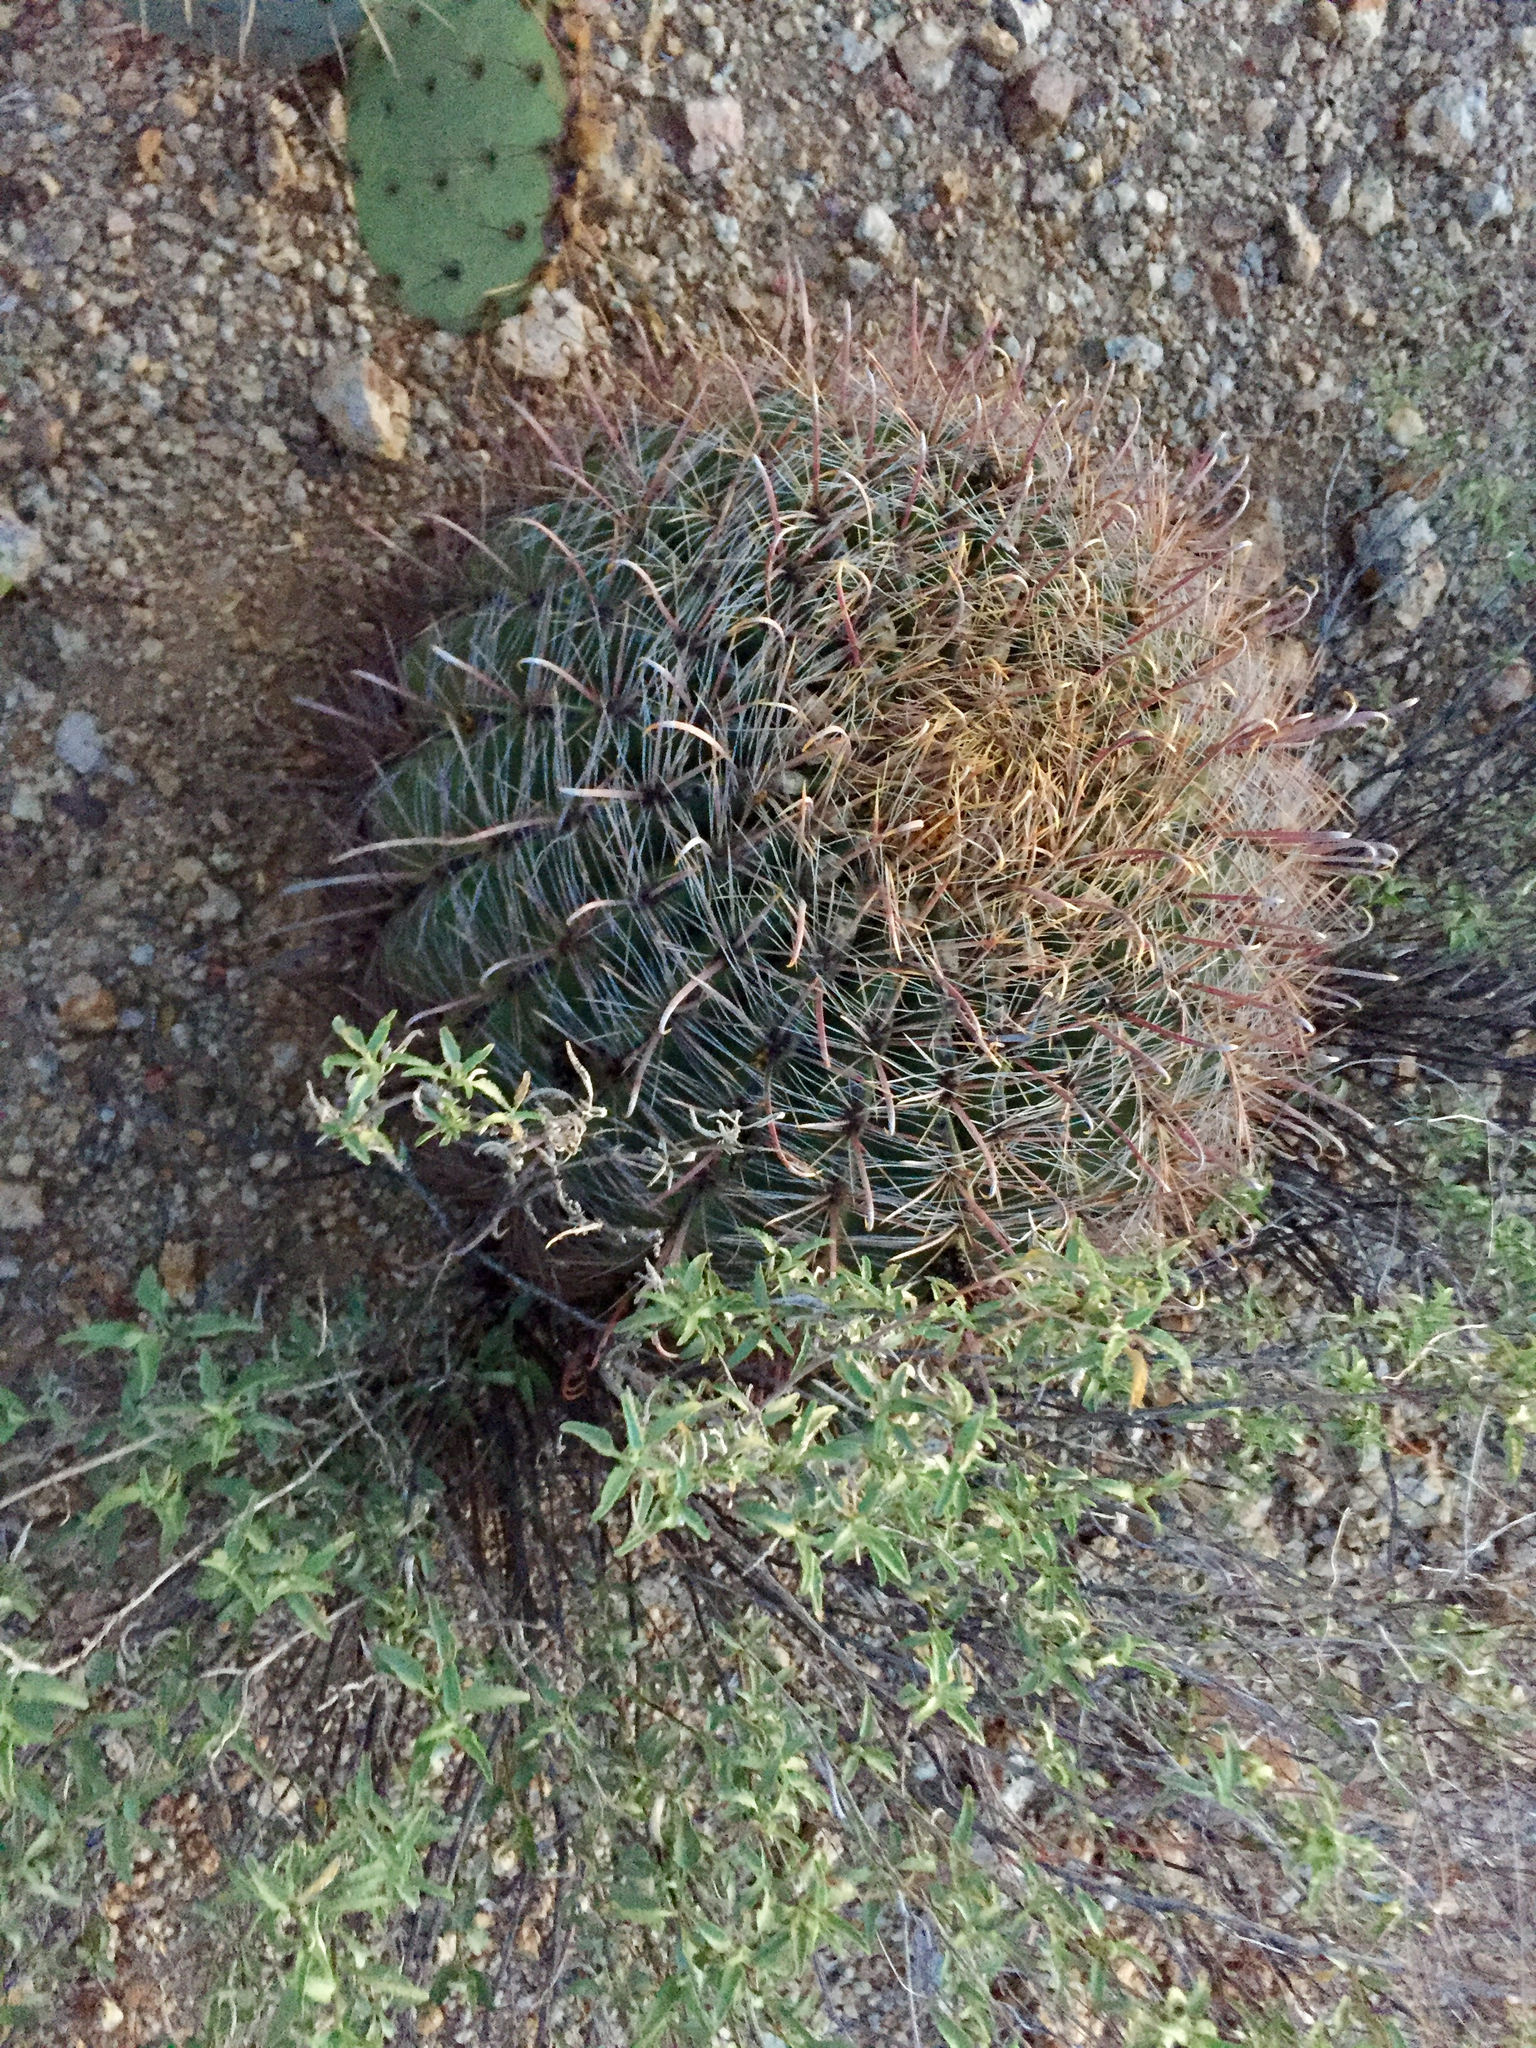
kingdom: Plantae
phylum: Tracheophyta
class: Magnoliopsida
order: Caryophyllales
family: Cactaceae
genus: Ferocactus
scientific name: Ferocactus wislizeni
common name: Candy barrel cactus
